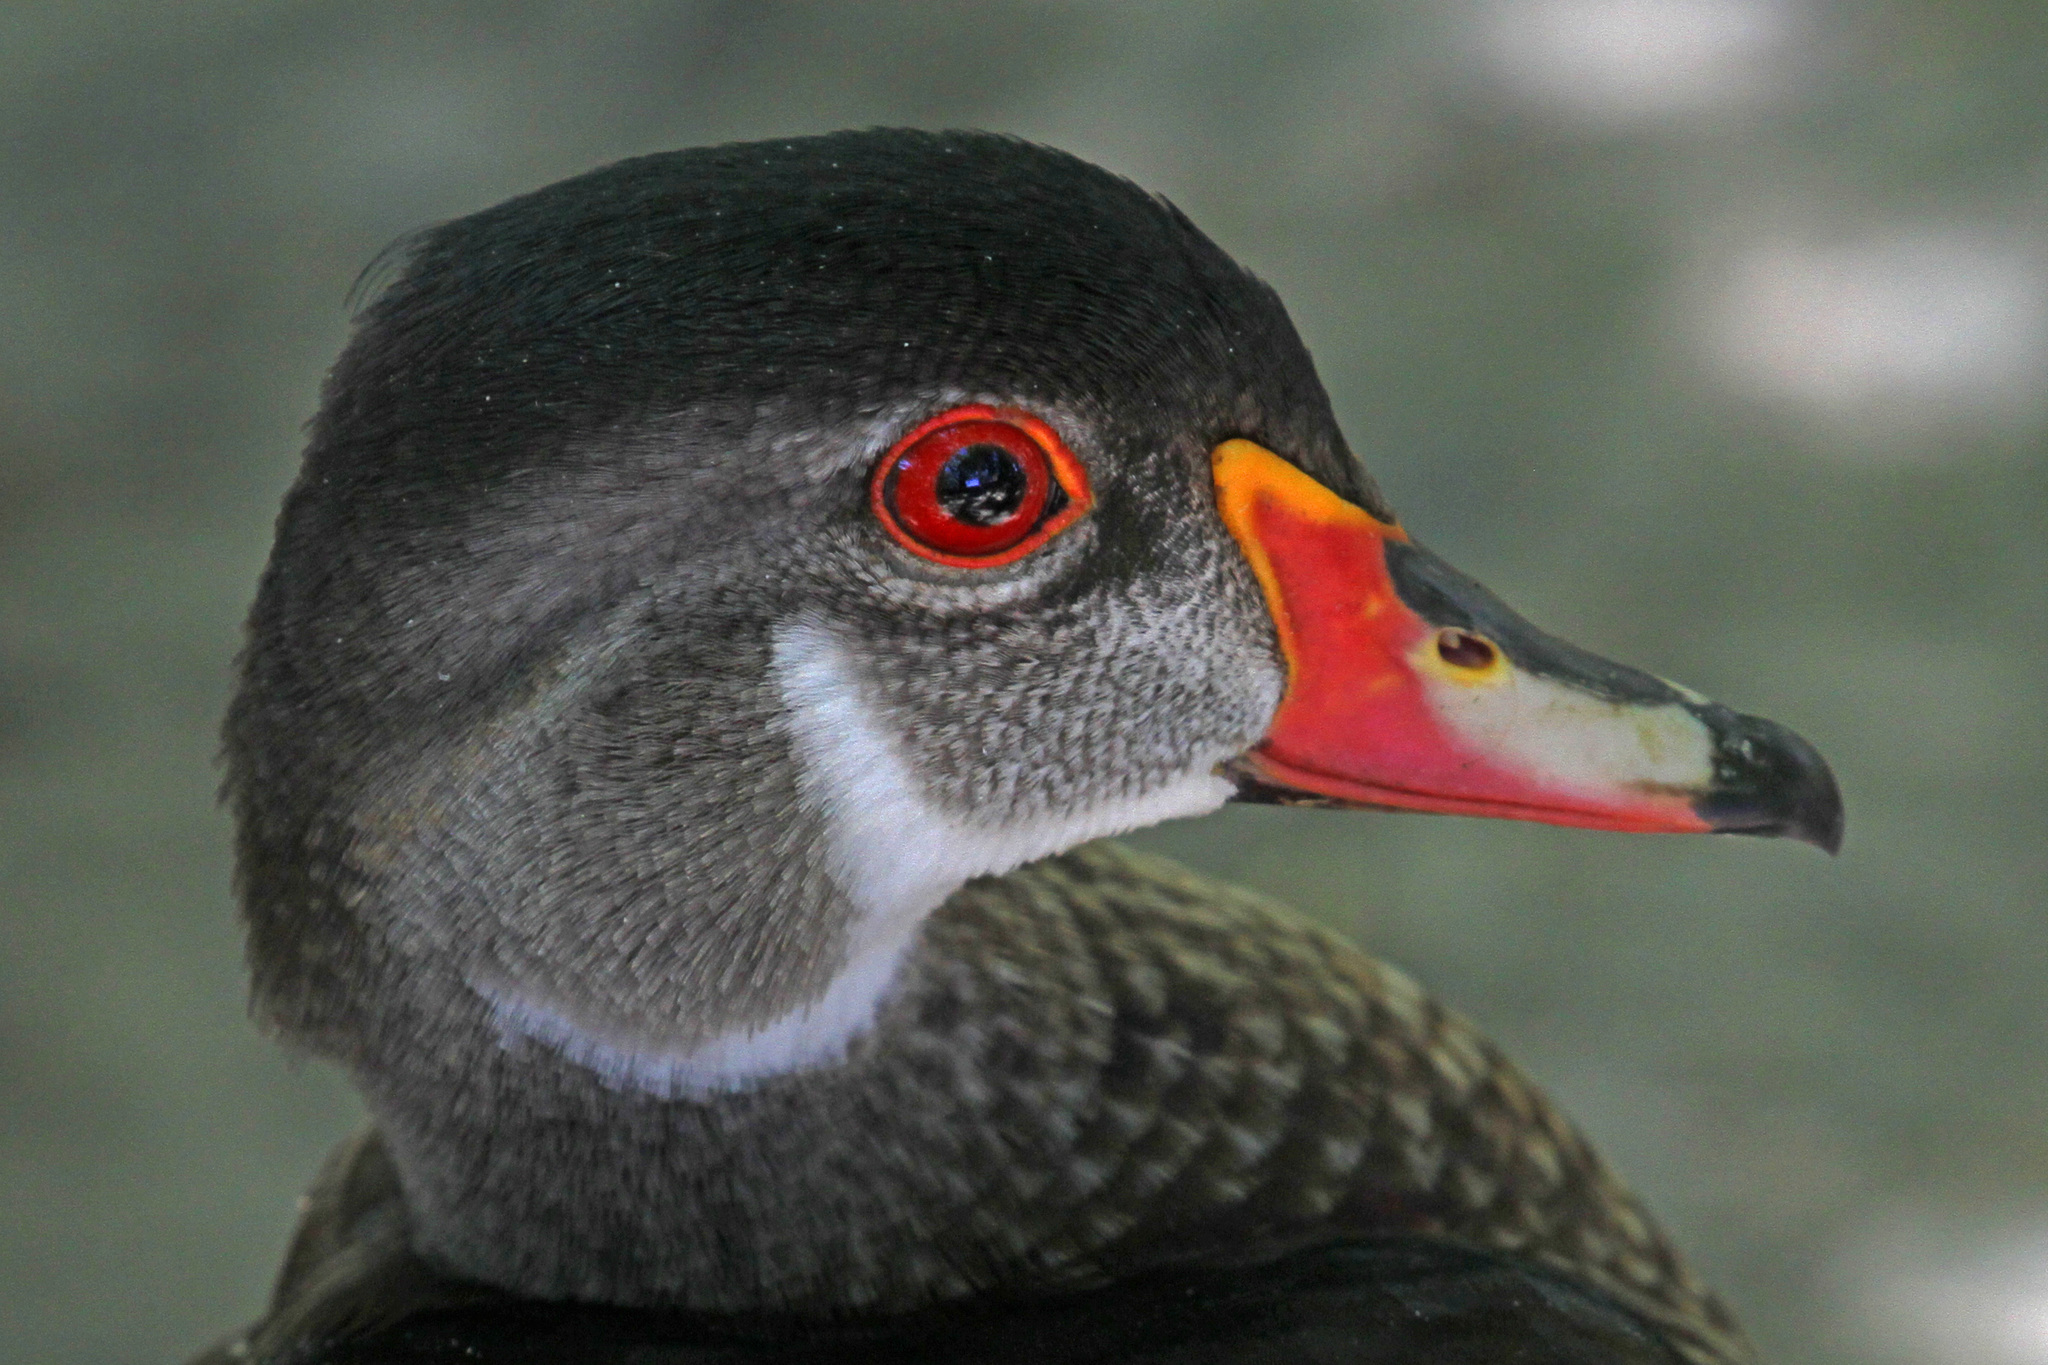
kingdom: Animalia
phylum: Chordata
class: Aves
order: Anseriformes
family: Anatidae
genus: Aix
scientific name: Aix sponsa
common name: Wood duck
